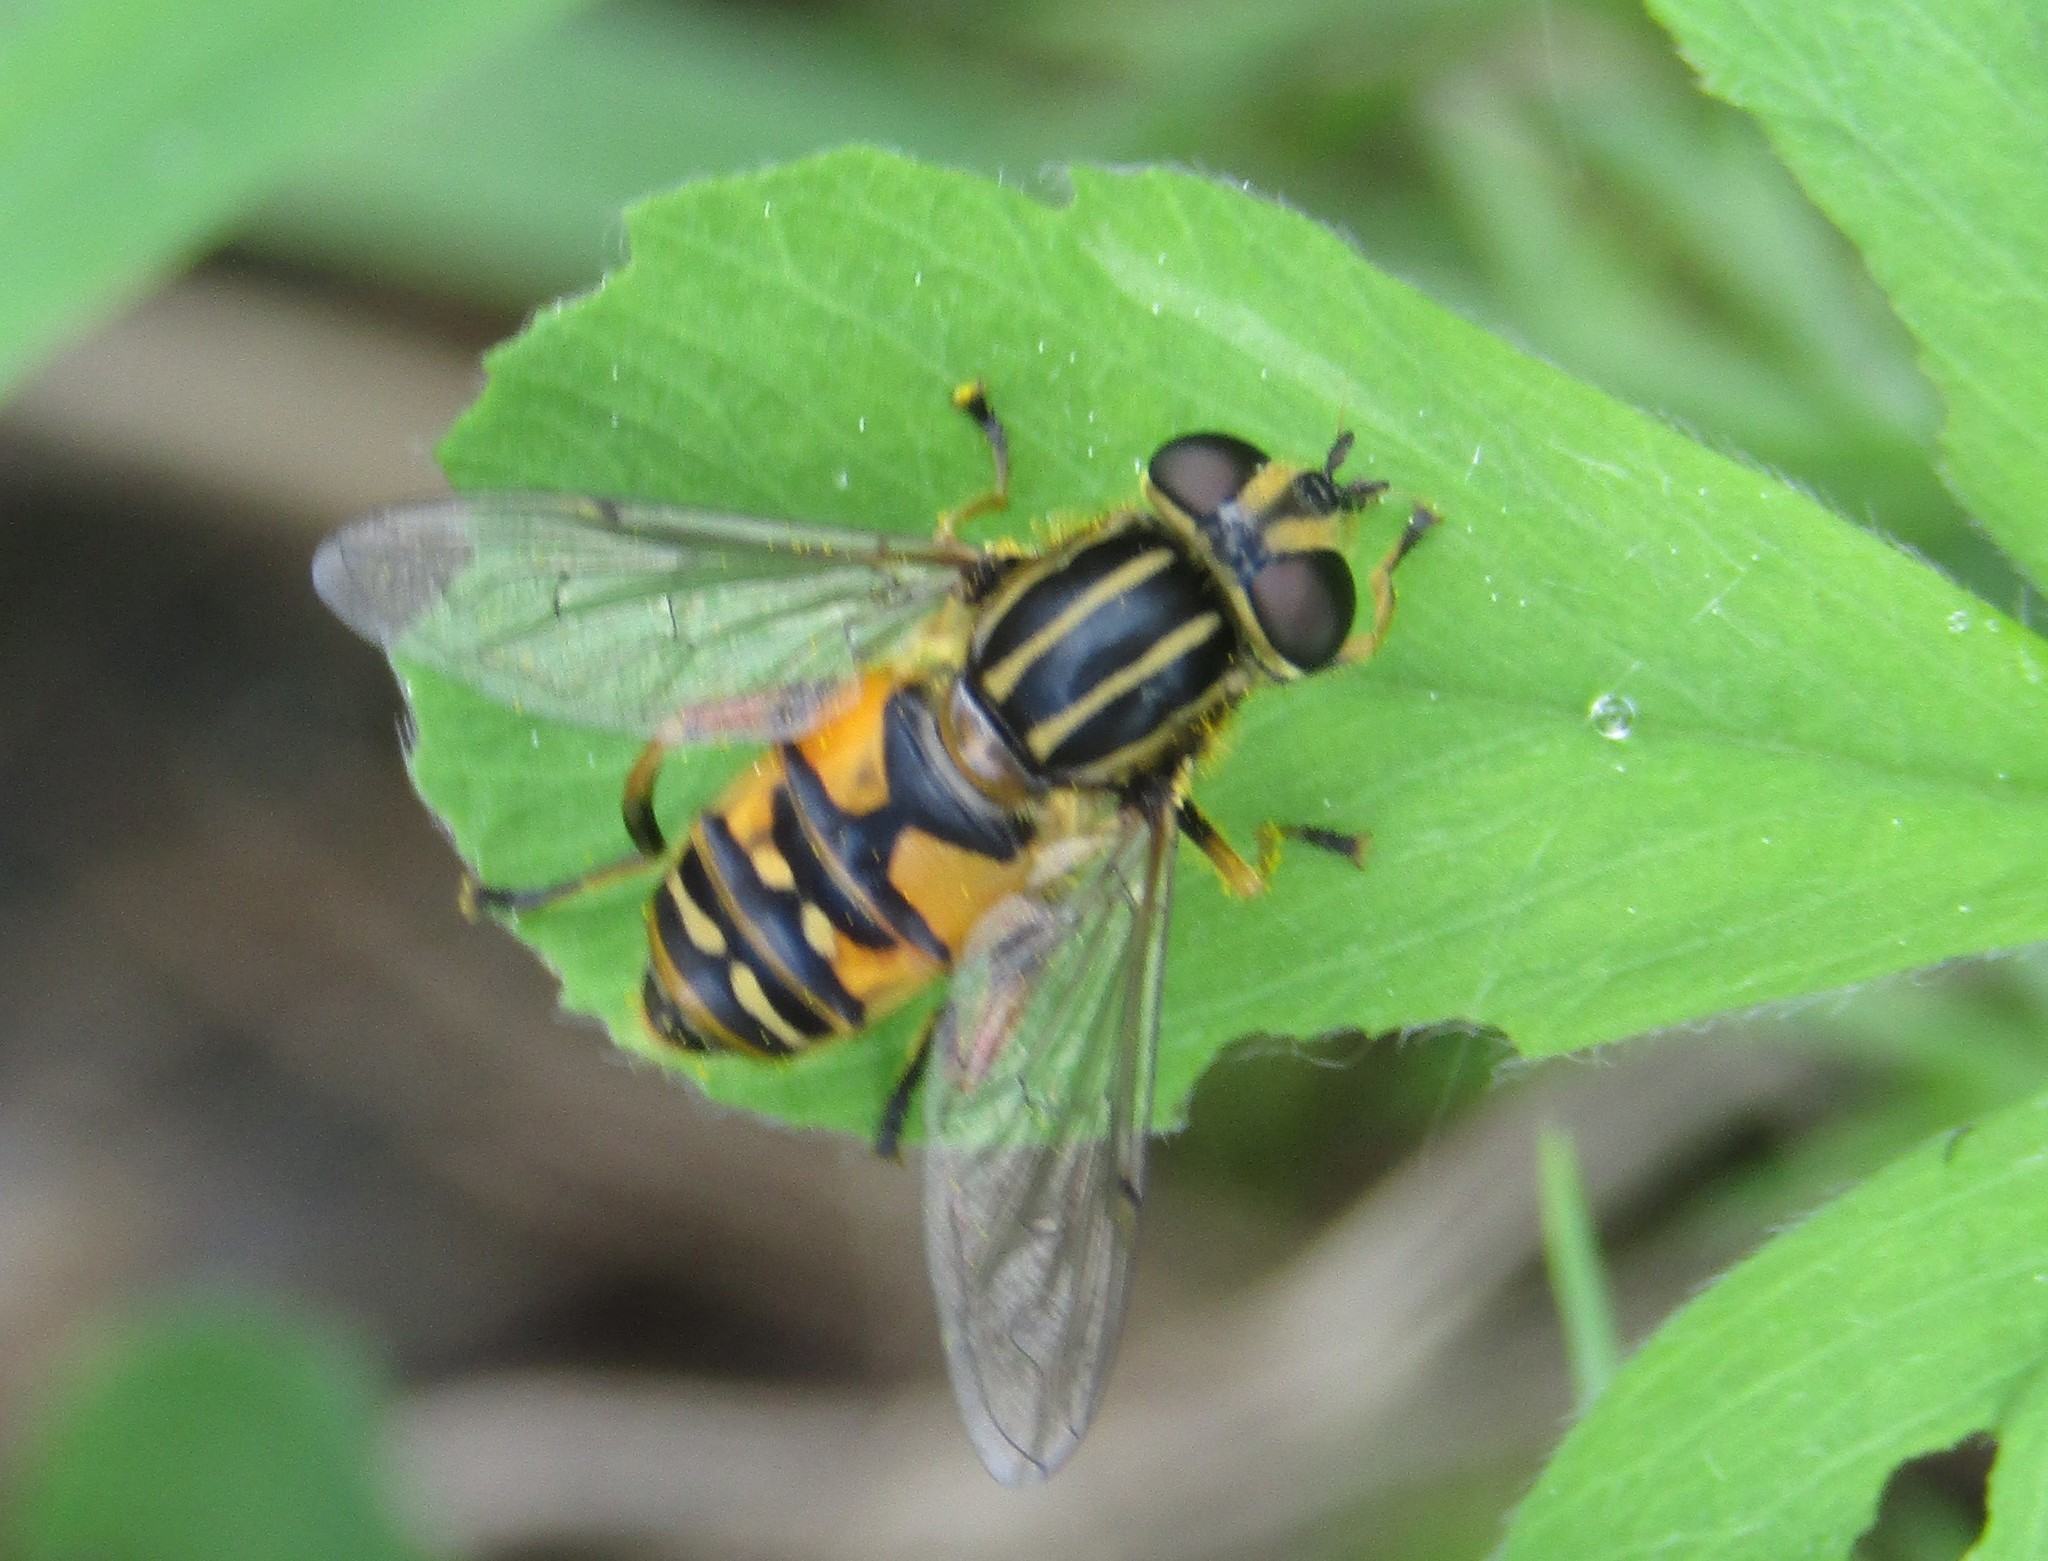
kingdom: Animalia
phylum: Arthropoda
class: Insecta
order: Diptera
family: Syrphidae
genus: Helophilus
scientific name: Helophilus pendulus
